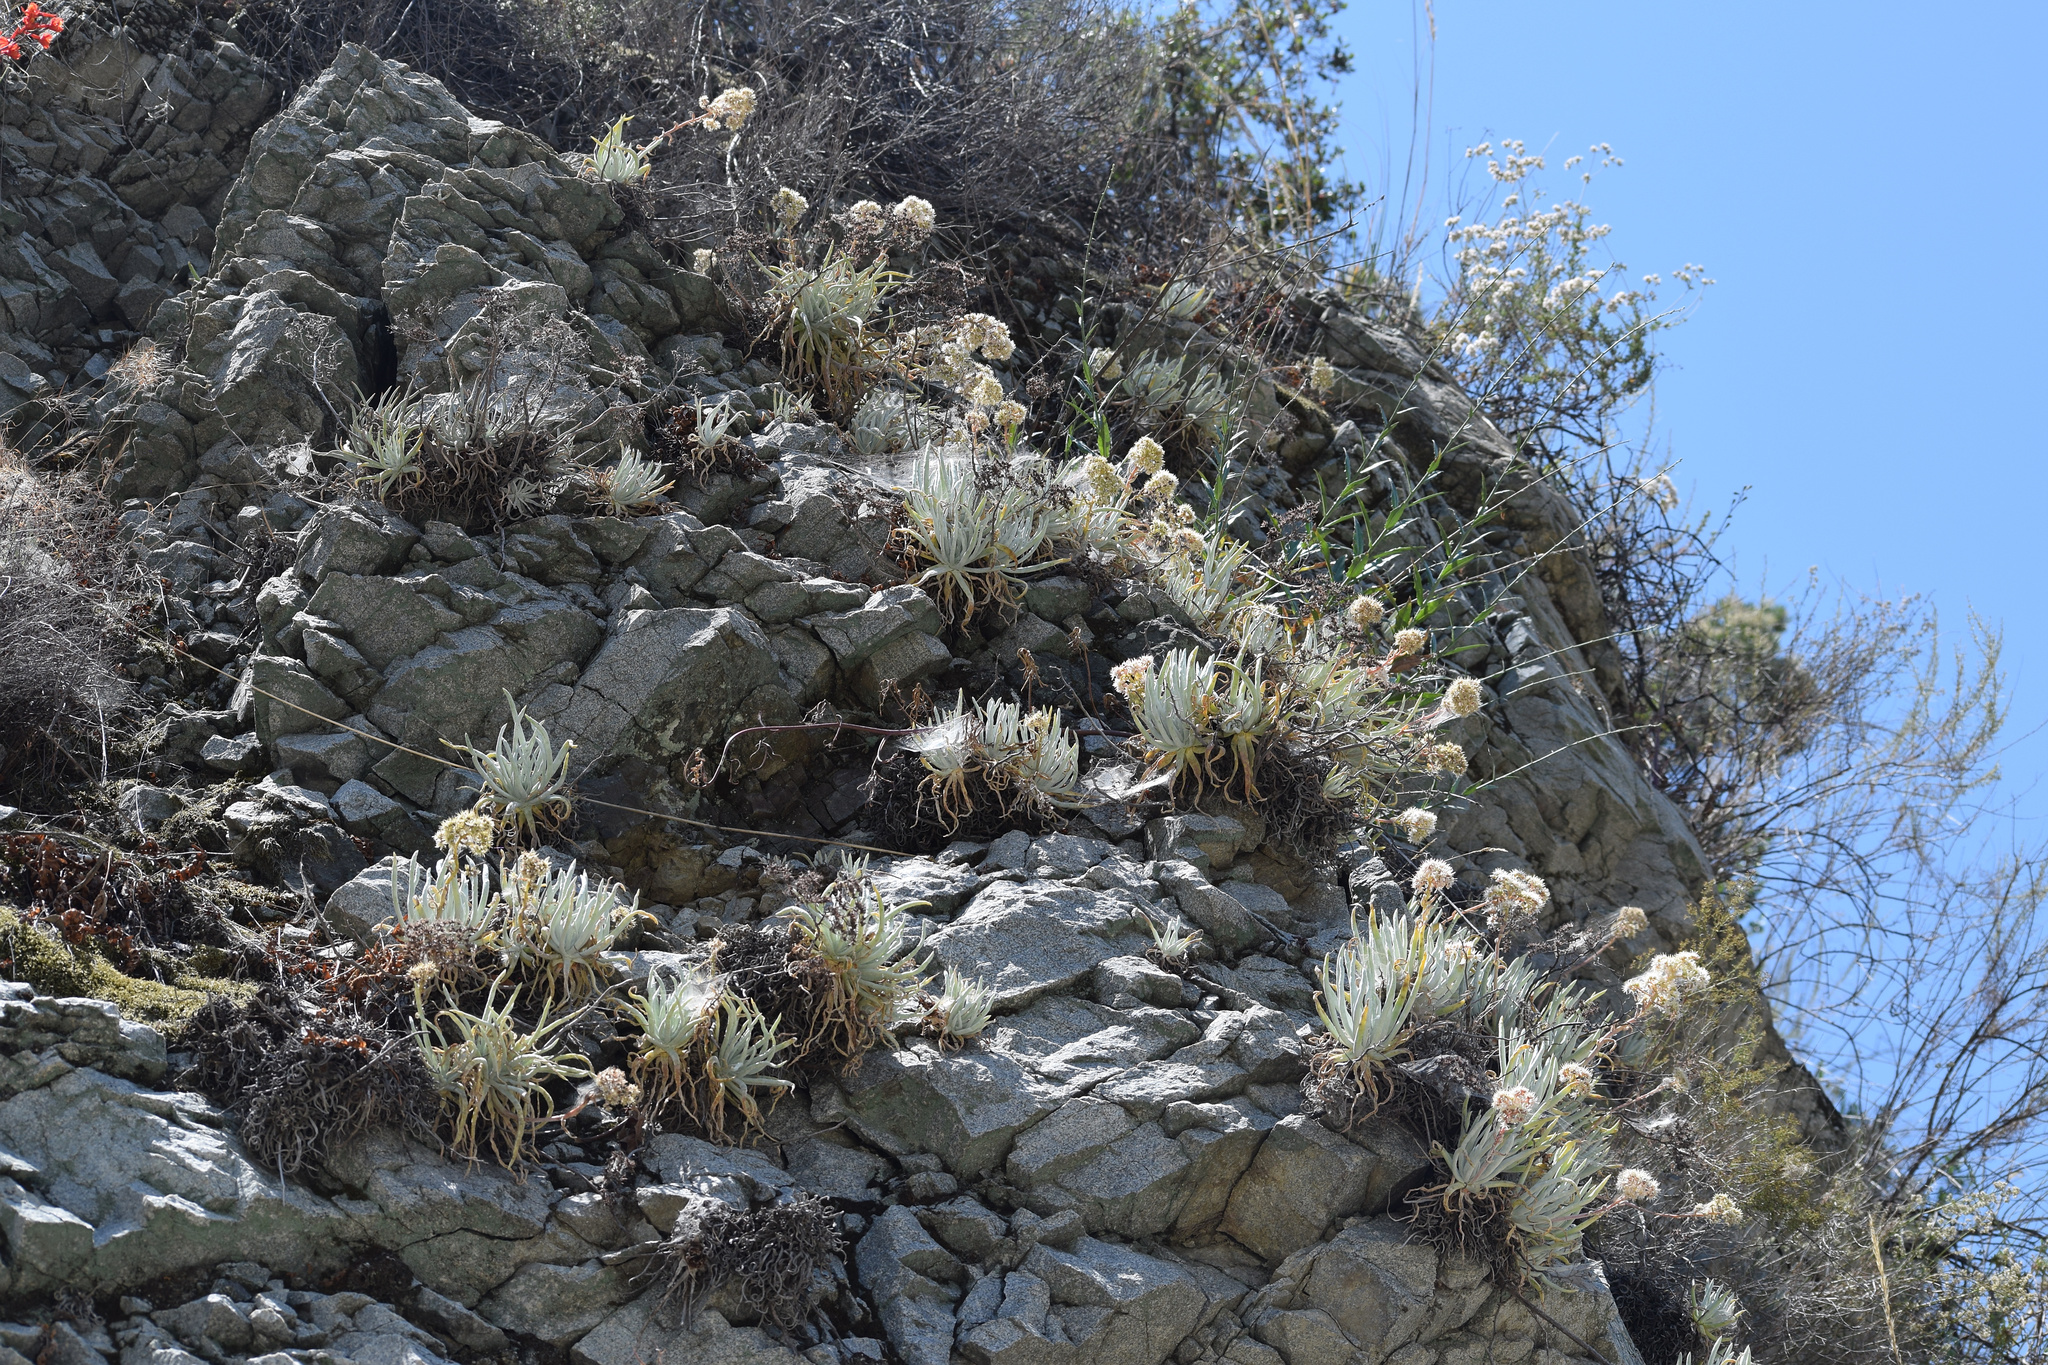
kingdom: Plantae
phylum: Tracheophyta
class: Magnoliopsida
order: Saxifragales
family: Crassulaceae
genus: Dudleya
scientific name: Dudleya densiflora
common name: San gabriel mountains dudleya
